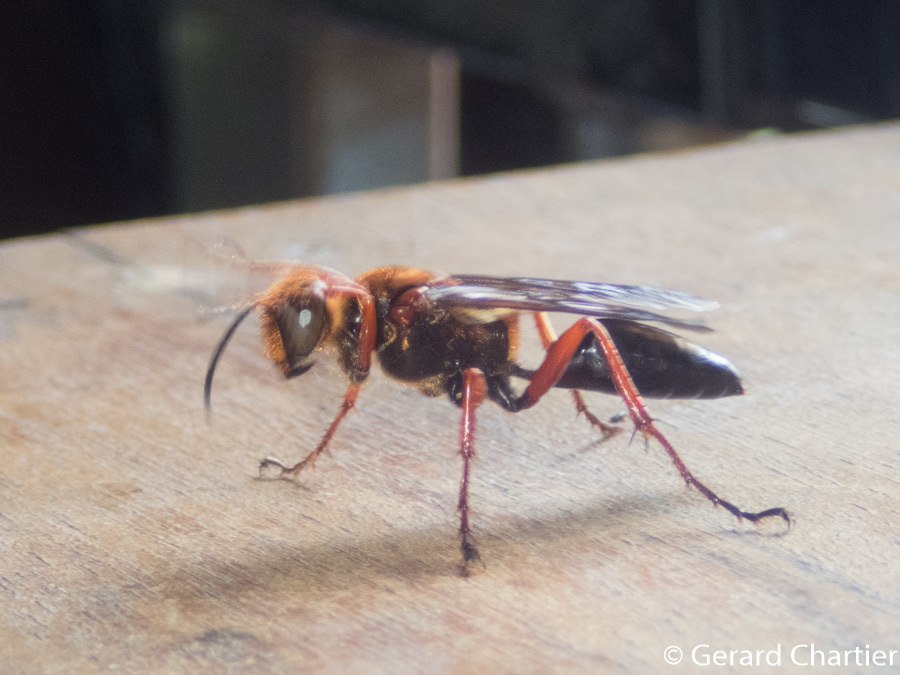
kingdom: Animalia
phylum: Arthropoda
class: Insecta
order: Hymenoptera
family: Sphecidae
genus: Sphex
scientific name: Sphex sericeus
